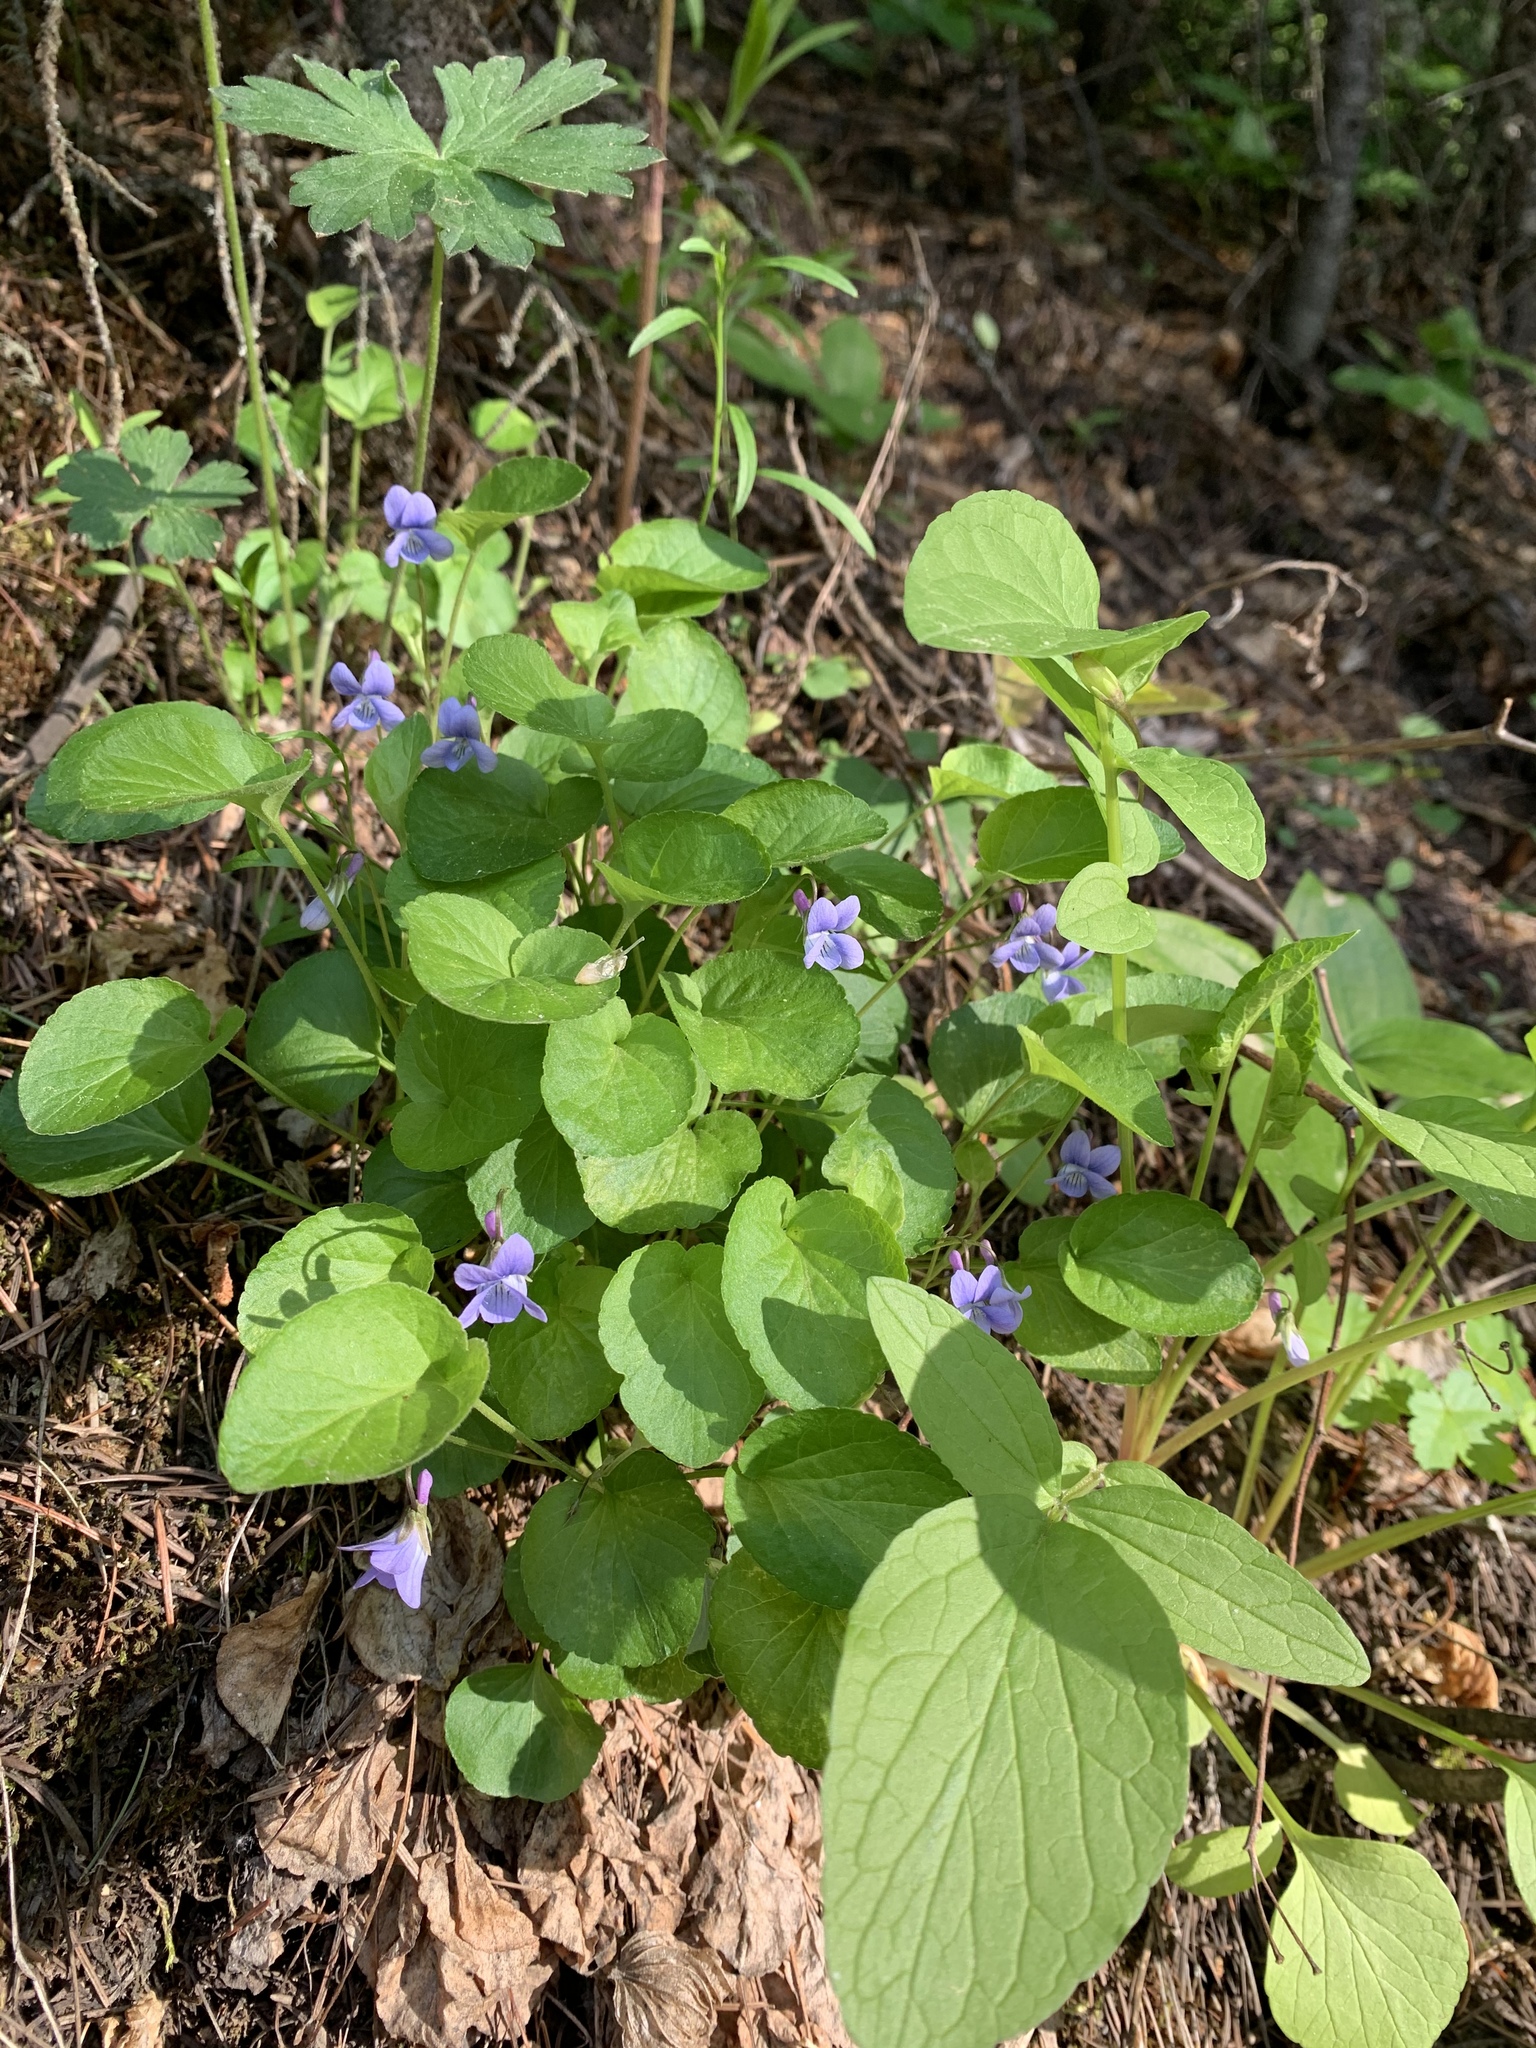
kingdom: Plantae
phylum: Tracheophyta
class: Magnoliopsida
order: Malpighiales
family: Violaceae
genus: Viola
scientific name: Viola adunca
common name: Sand violet
